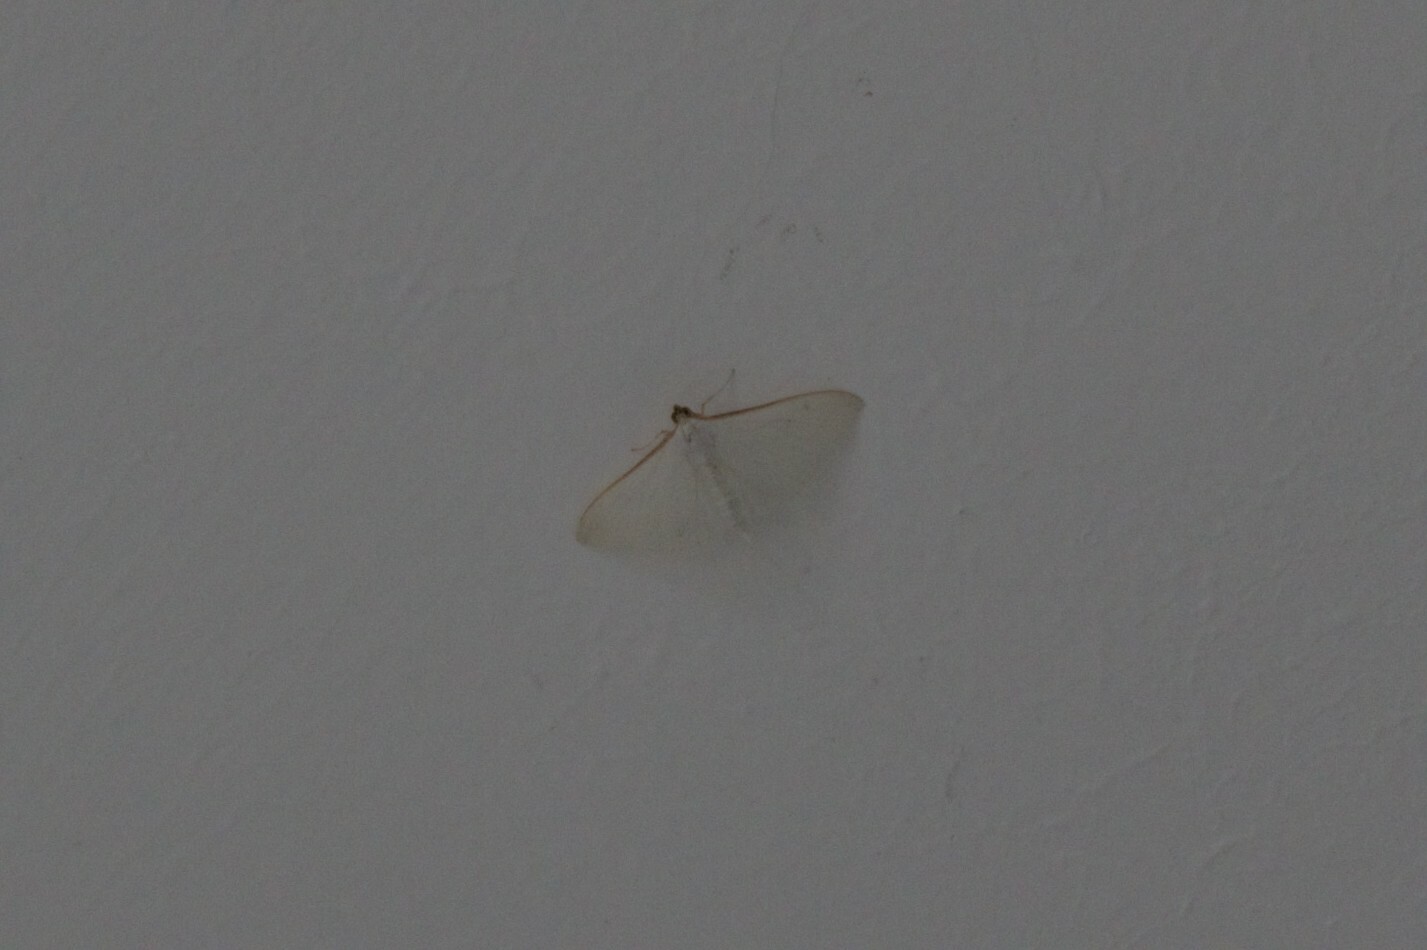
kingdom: Animalia
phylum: Arthropoda
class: Insecta
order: Lepidoptera
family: Crambidae
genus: Palpita
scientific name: Palpita vitrealis
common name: Olive-tree pearl
